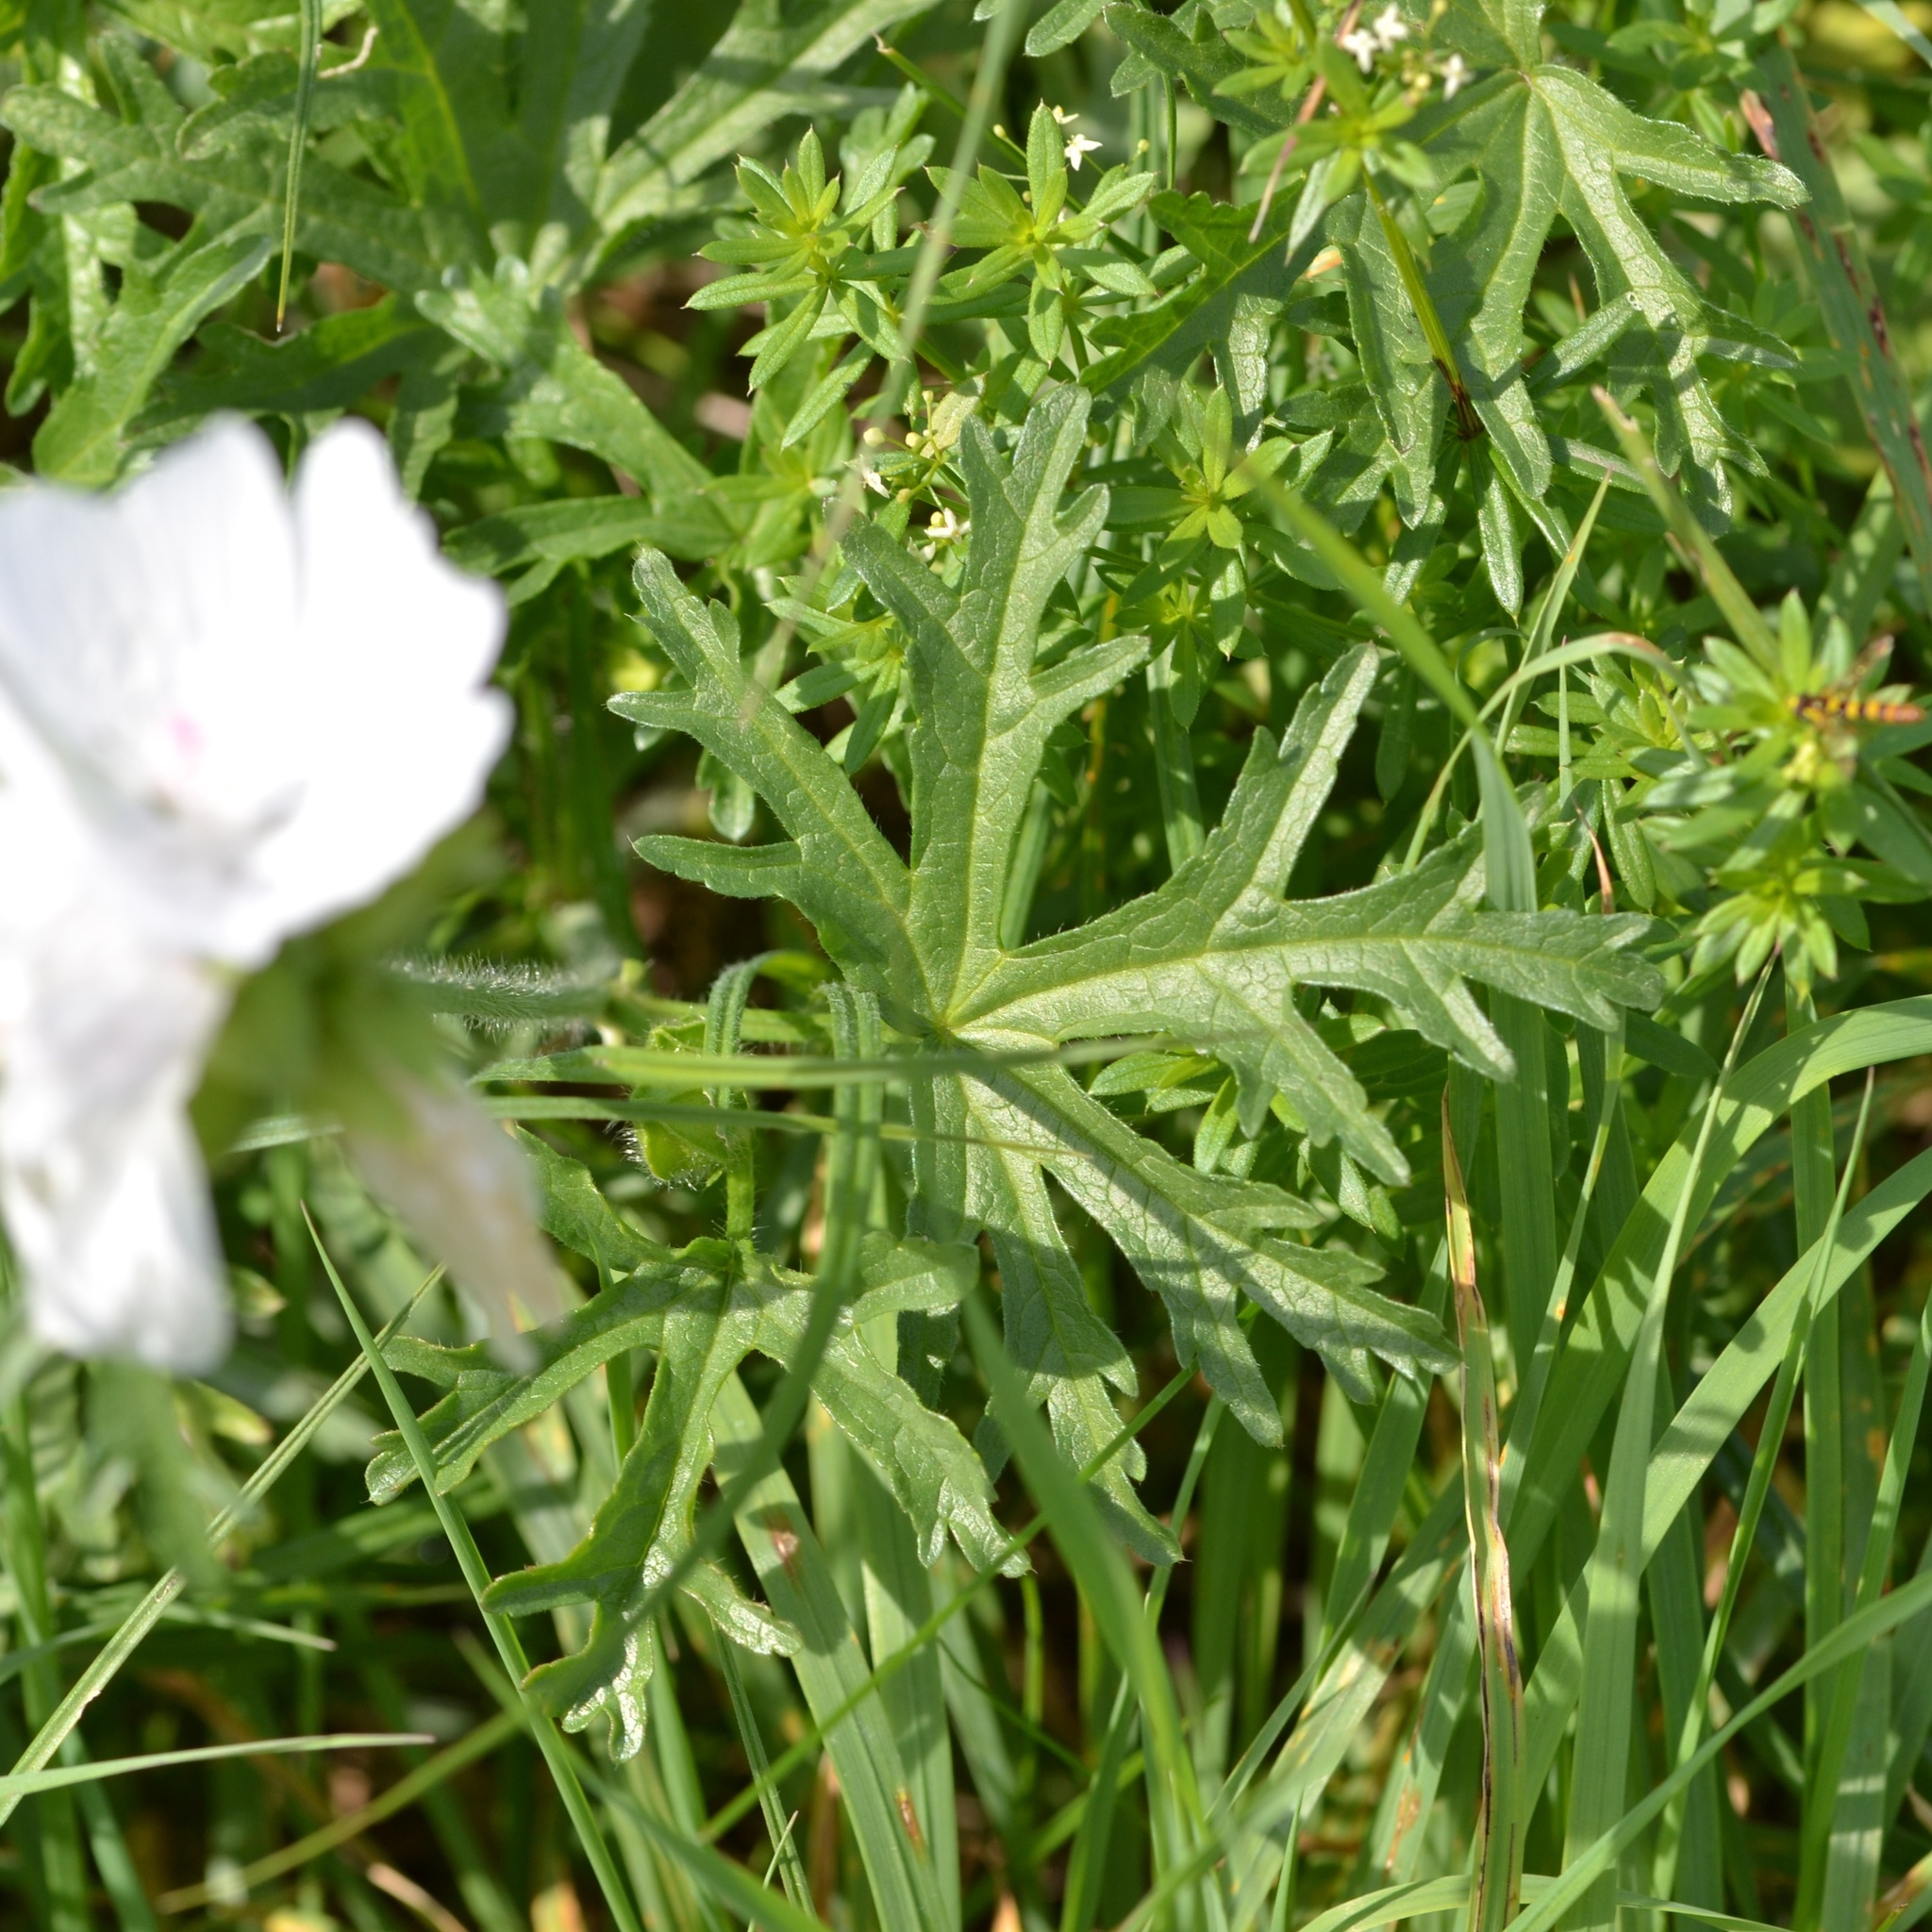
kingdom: Plantae
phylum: Tracheophyta
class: Magnoliopsida
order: Malvales
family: Malvaceae
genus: Malva
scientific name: Malva moschata
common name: Musk mallow
